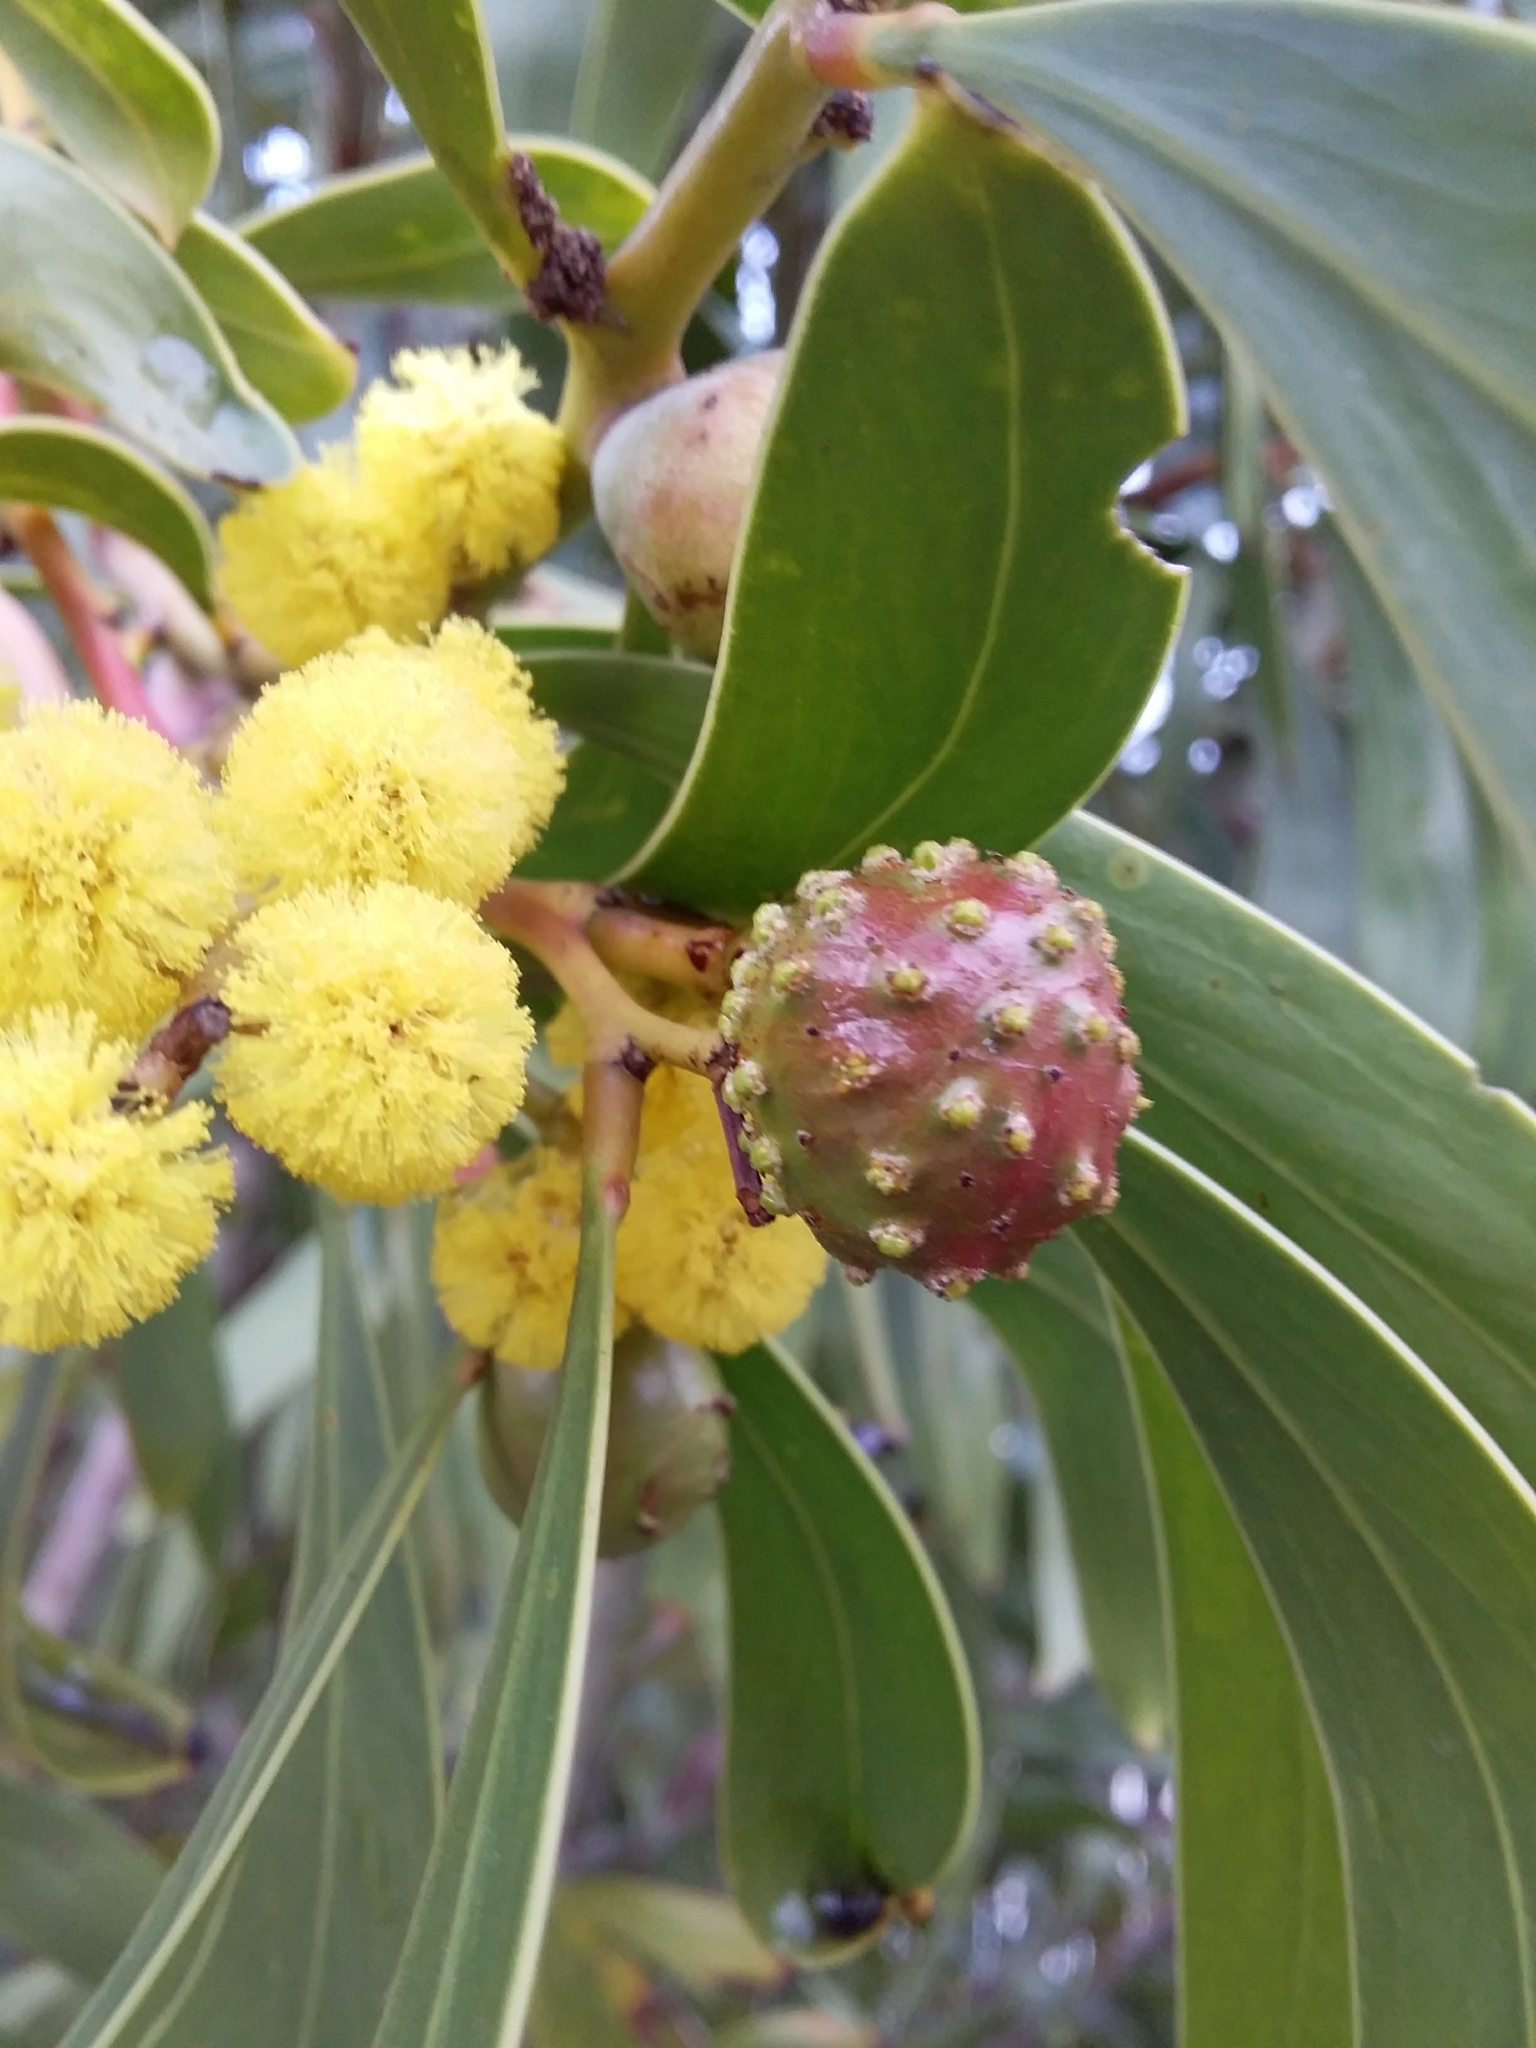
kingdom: Animalia
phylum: Arthropoda
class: Insecta
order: Hymenoptera
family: Pteromalidae
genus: Trichilogaster
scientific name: Trichilogaster signiventris
